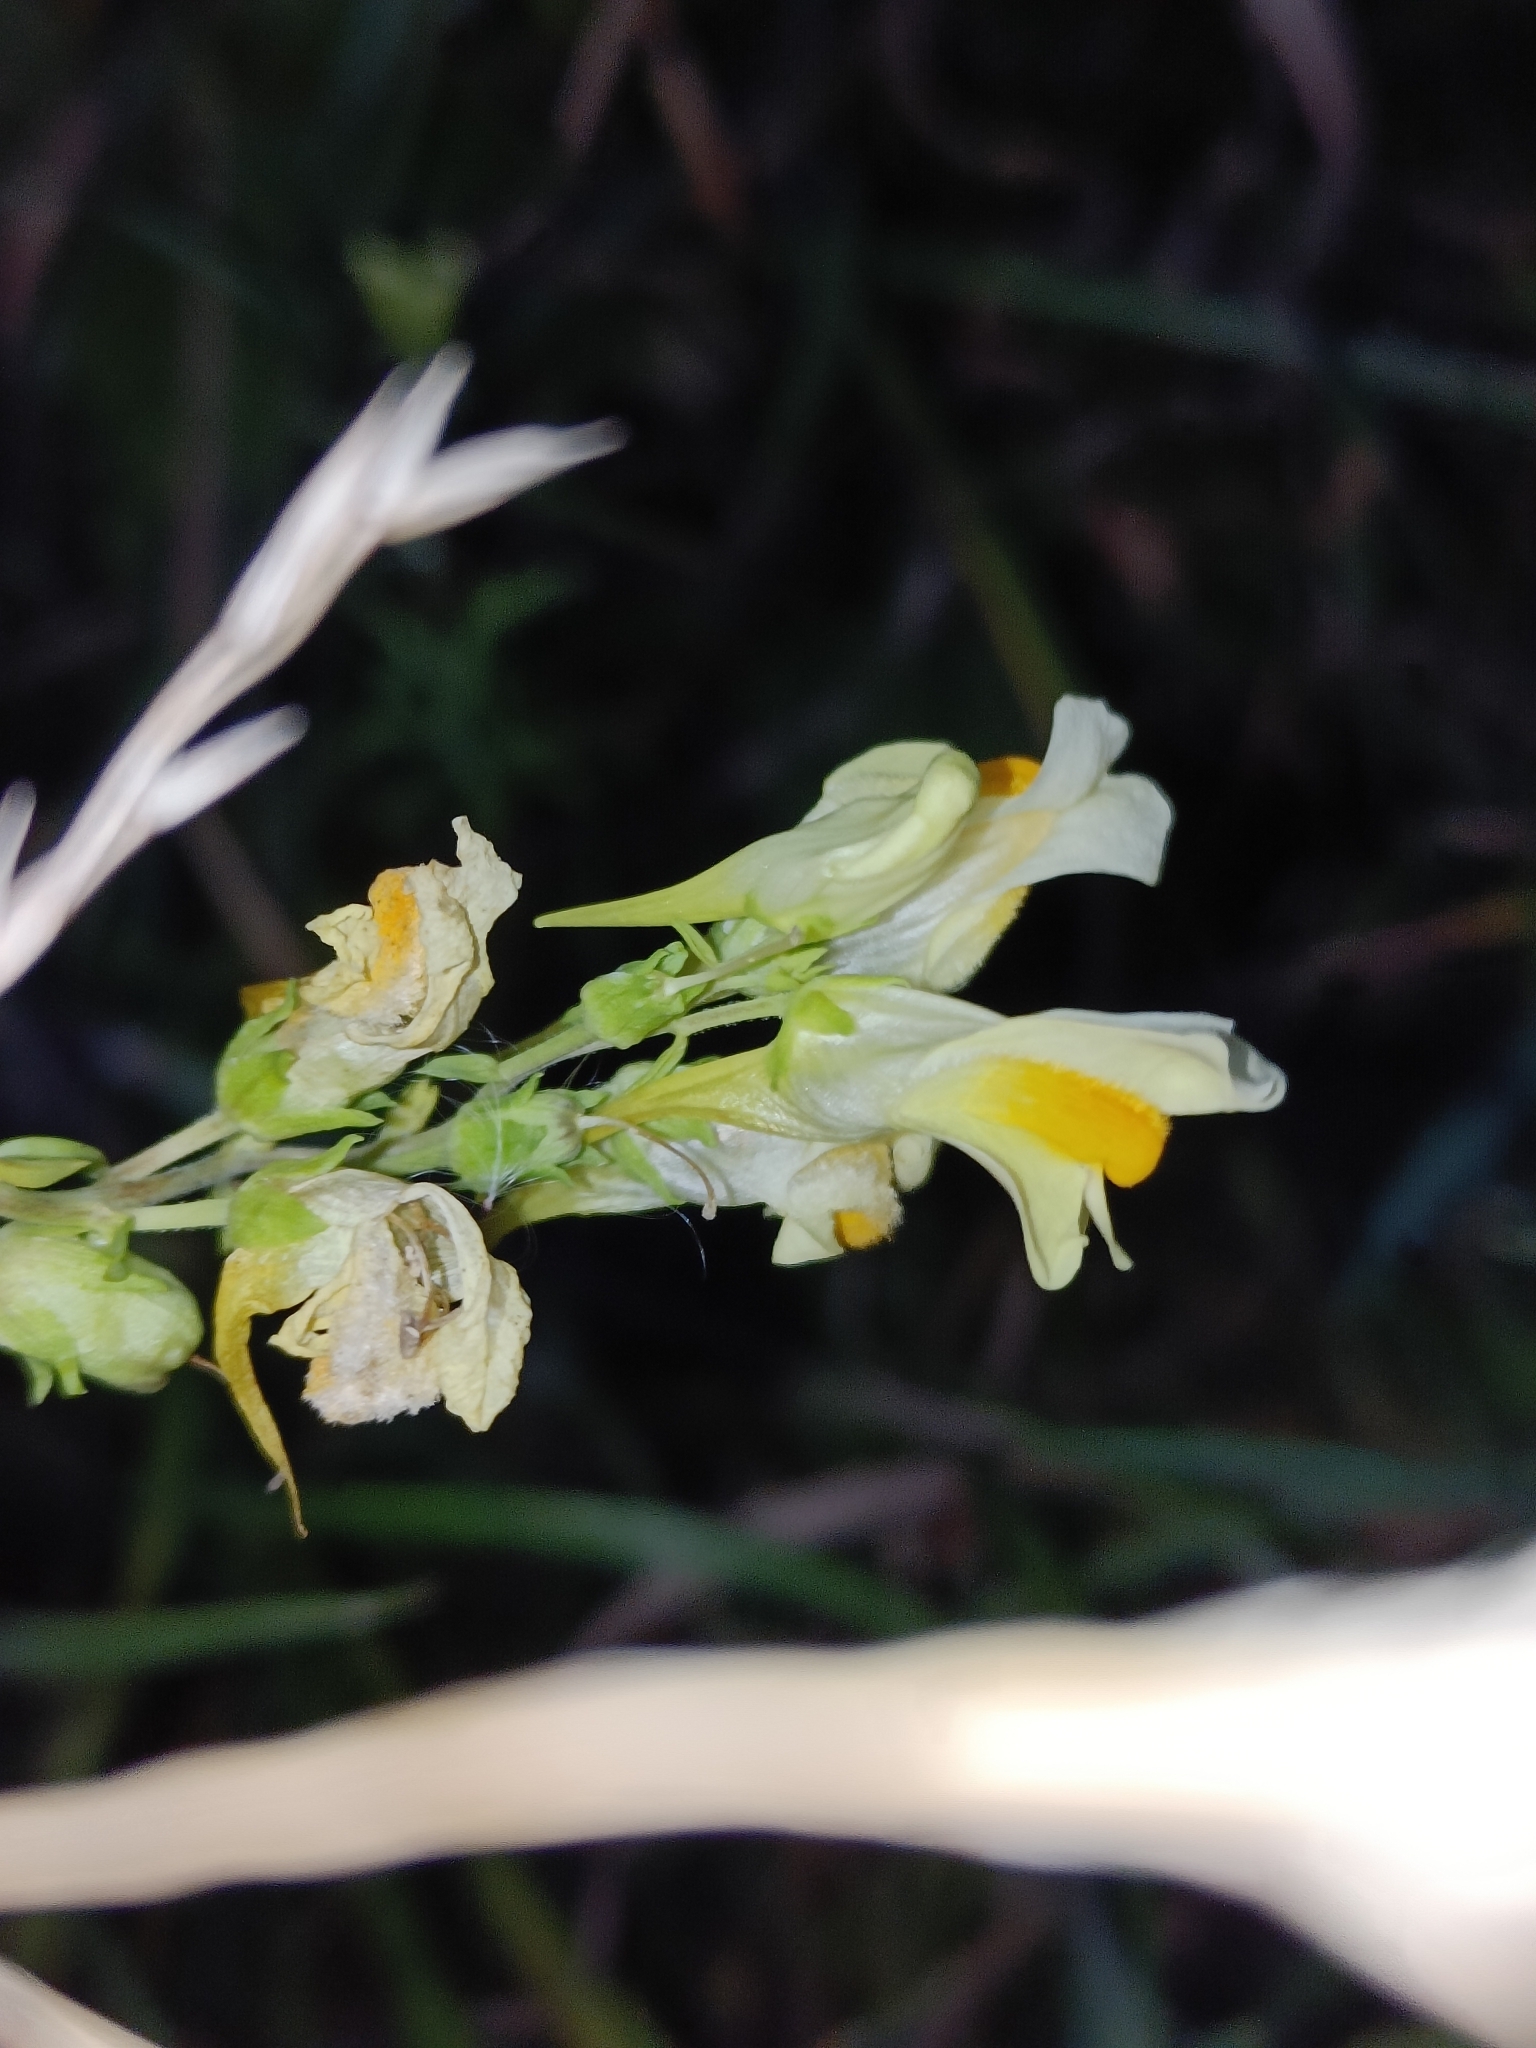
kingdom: Plantae
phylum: Tracheophyta
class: Magnoliopsida
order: Lamiales
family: Plantaginaceae
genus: Linaria
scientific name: Linaria vulgaris
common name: Butter and eggs
